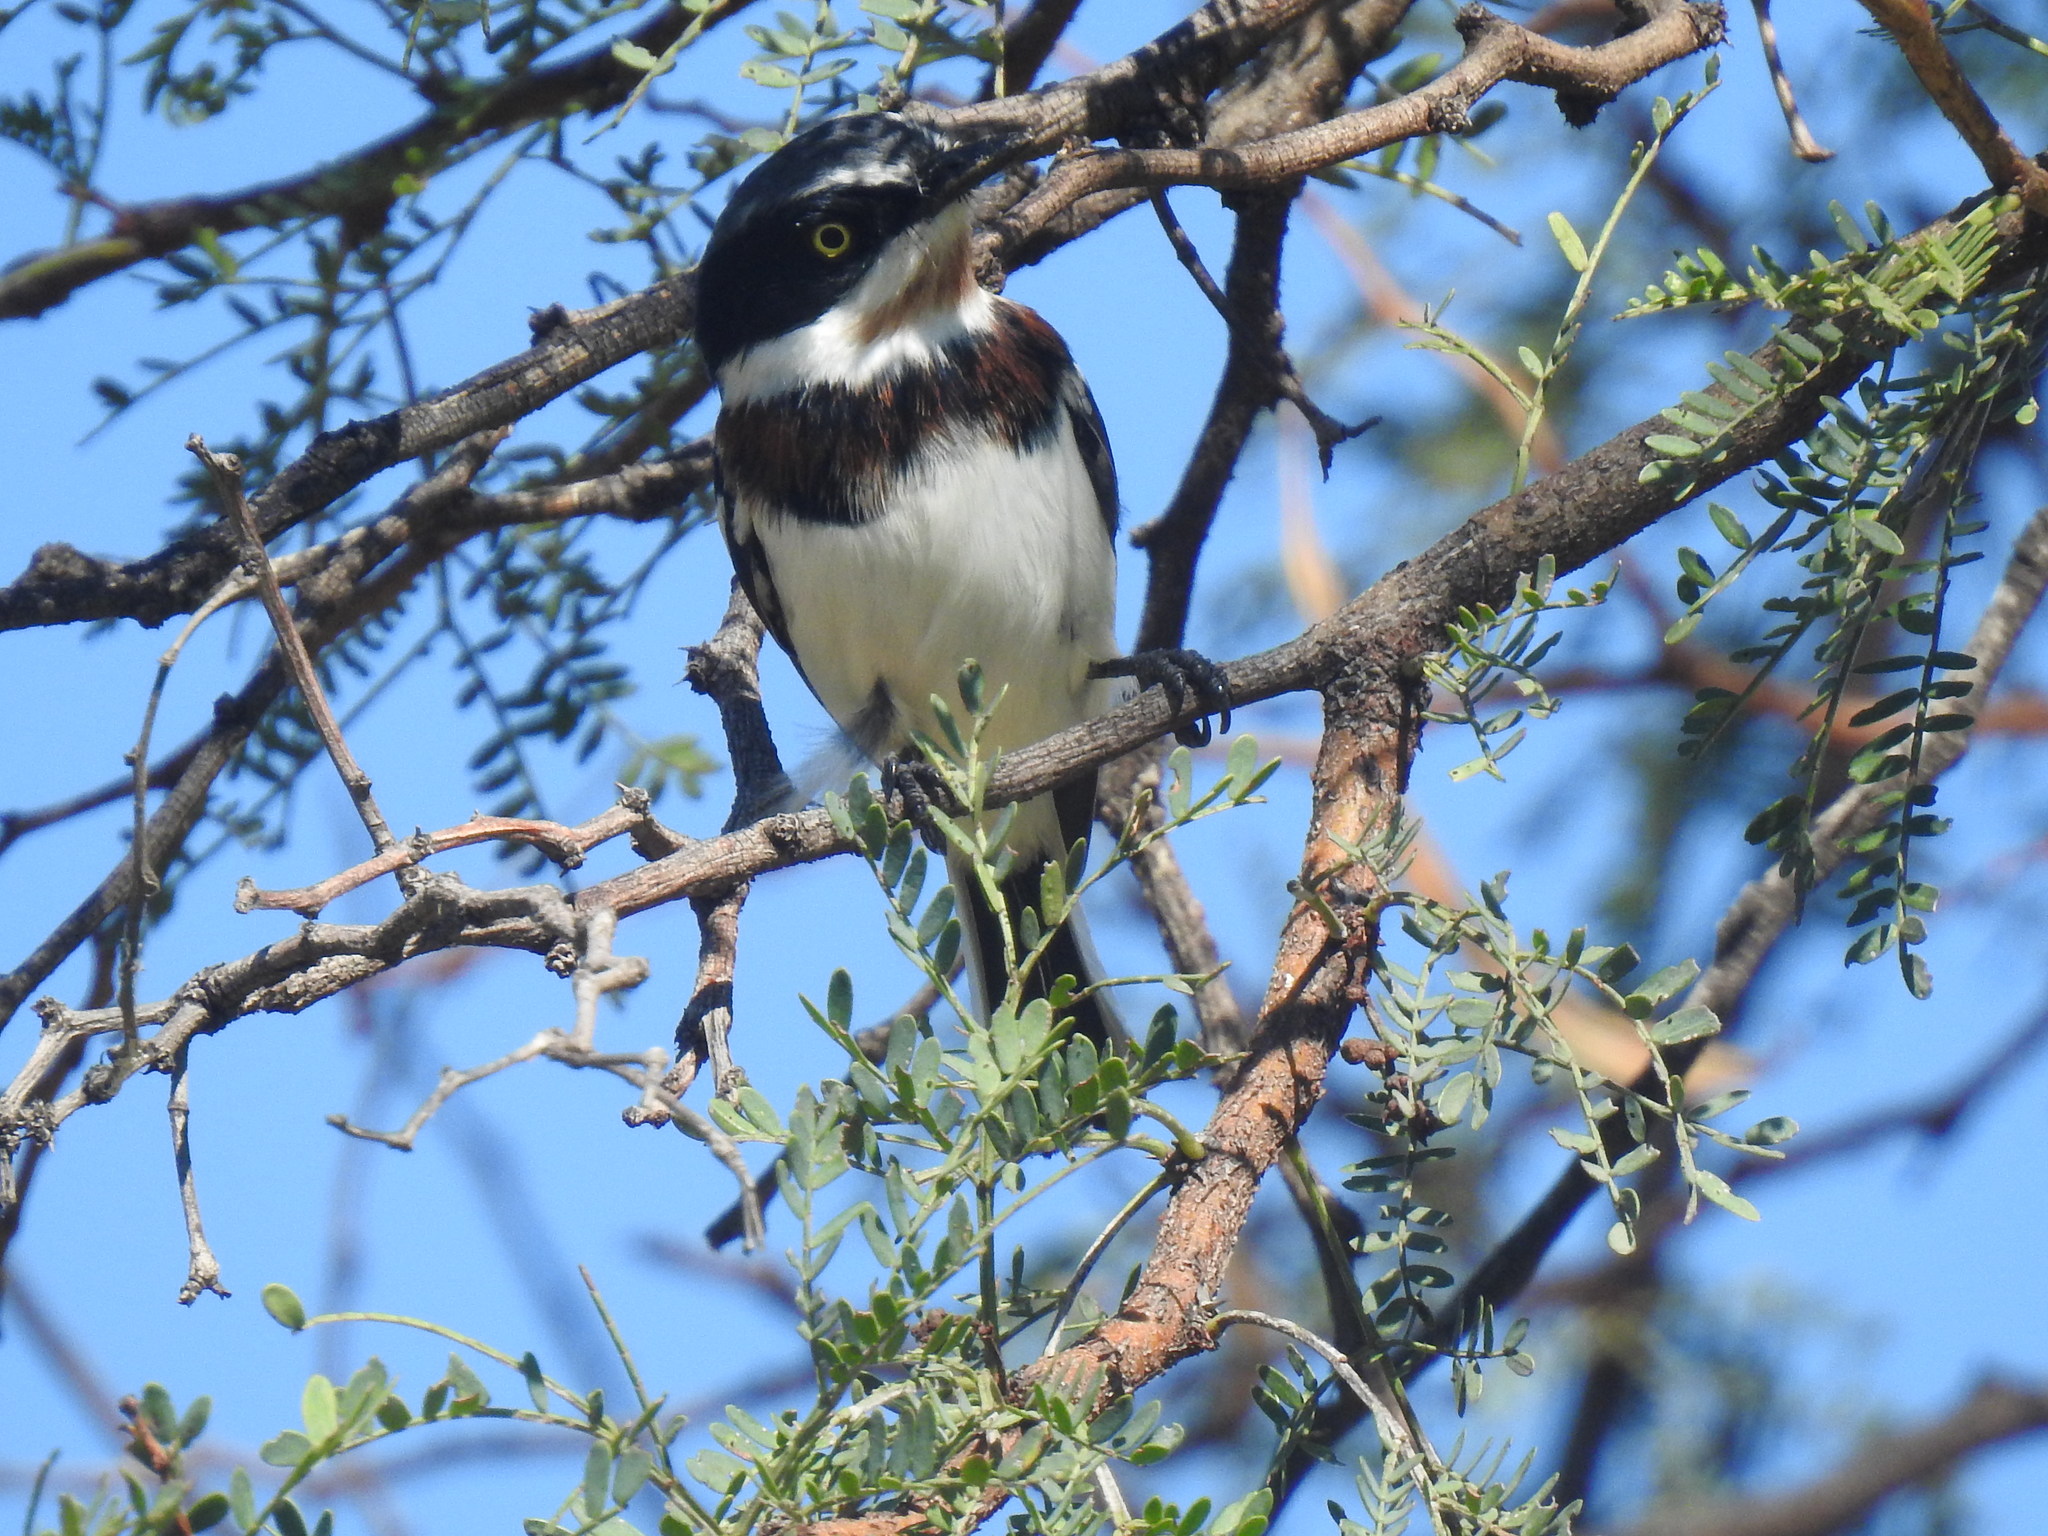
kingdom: Animalia
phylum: Chordata
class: Aves
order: Passeriformes
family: Platysteiridae
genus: Batis
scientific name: Batis molitor
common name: Chinspot batis
